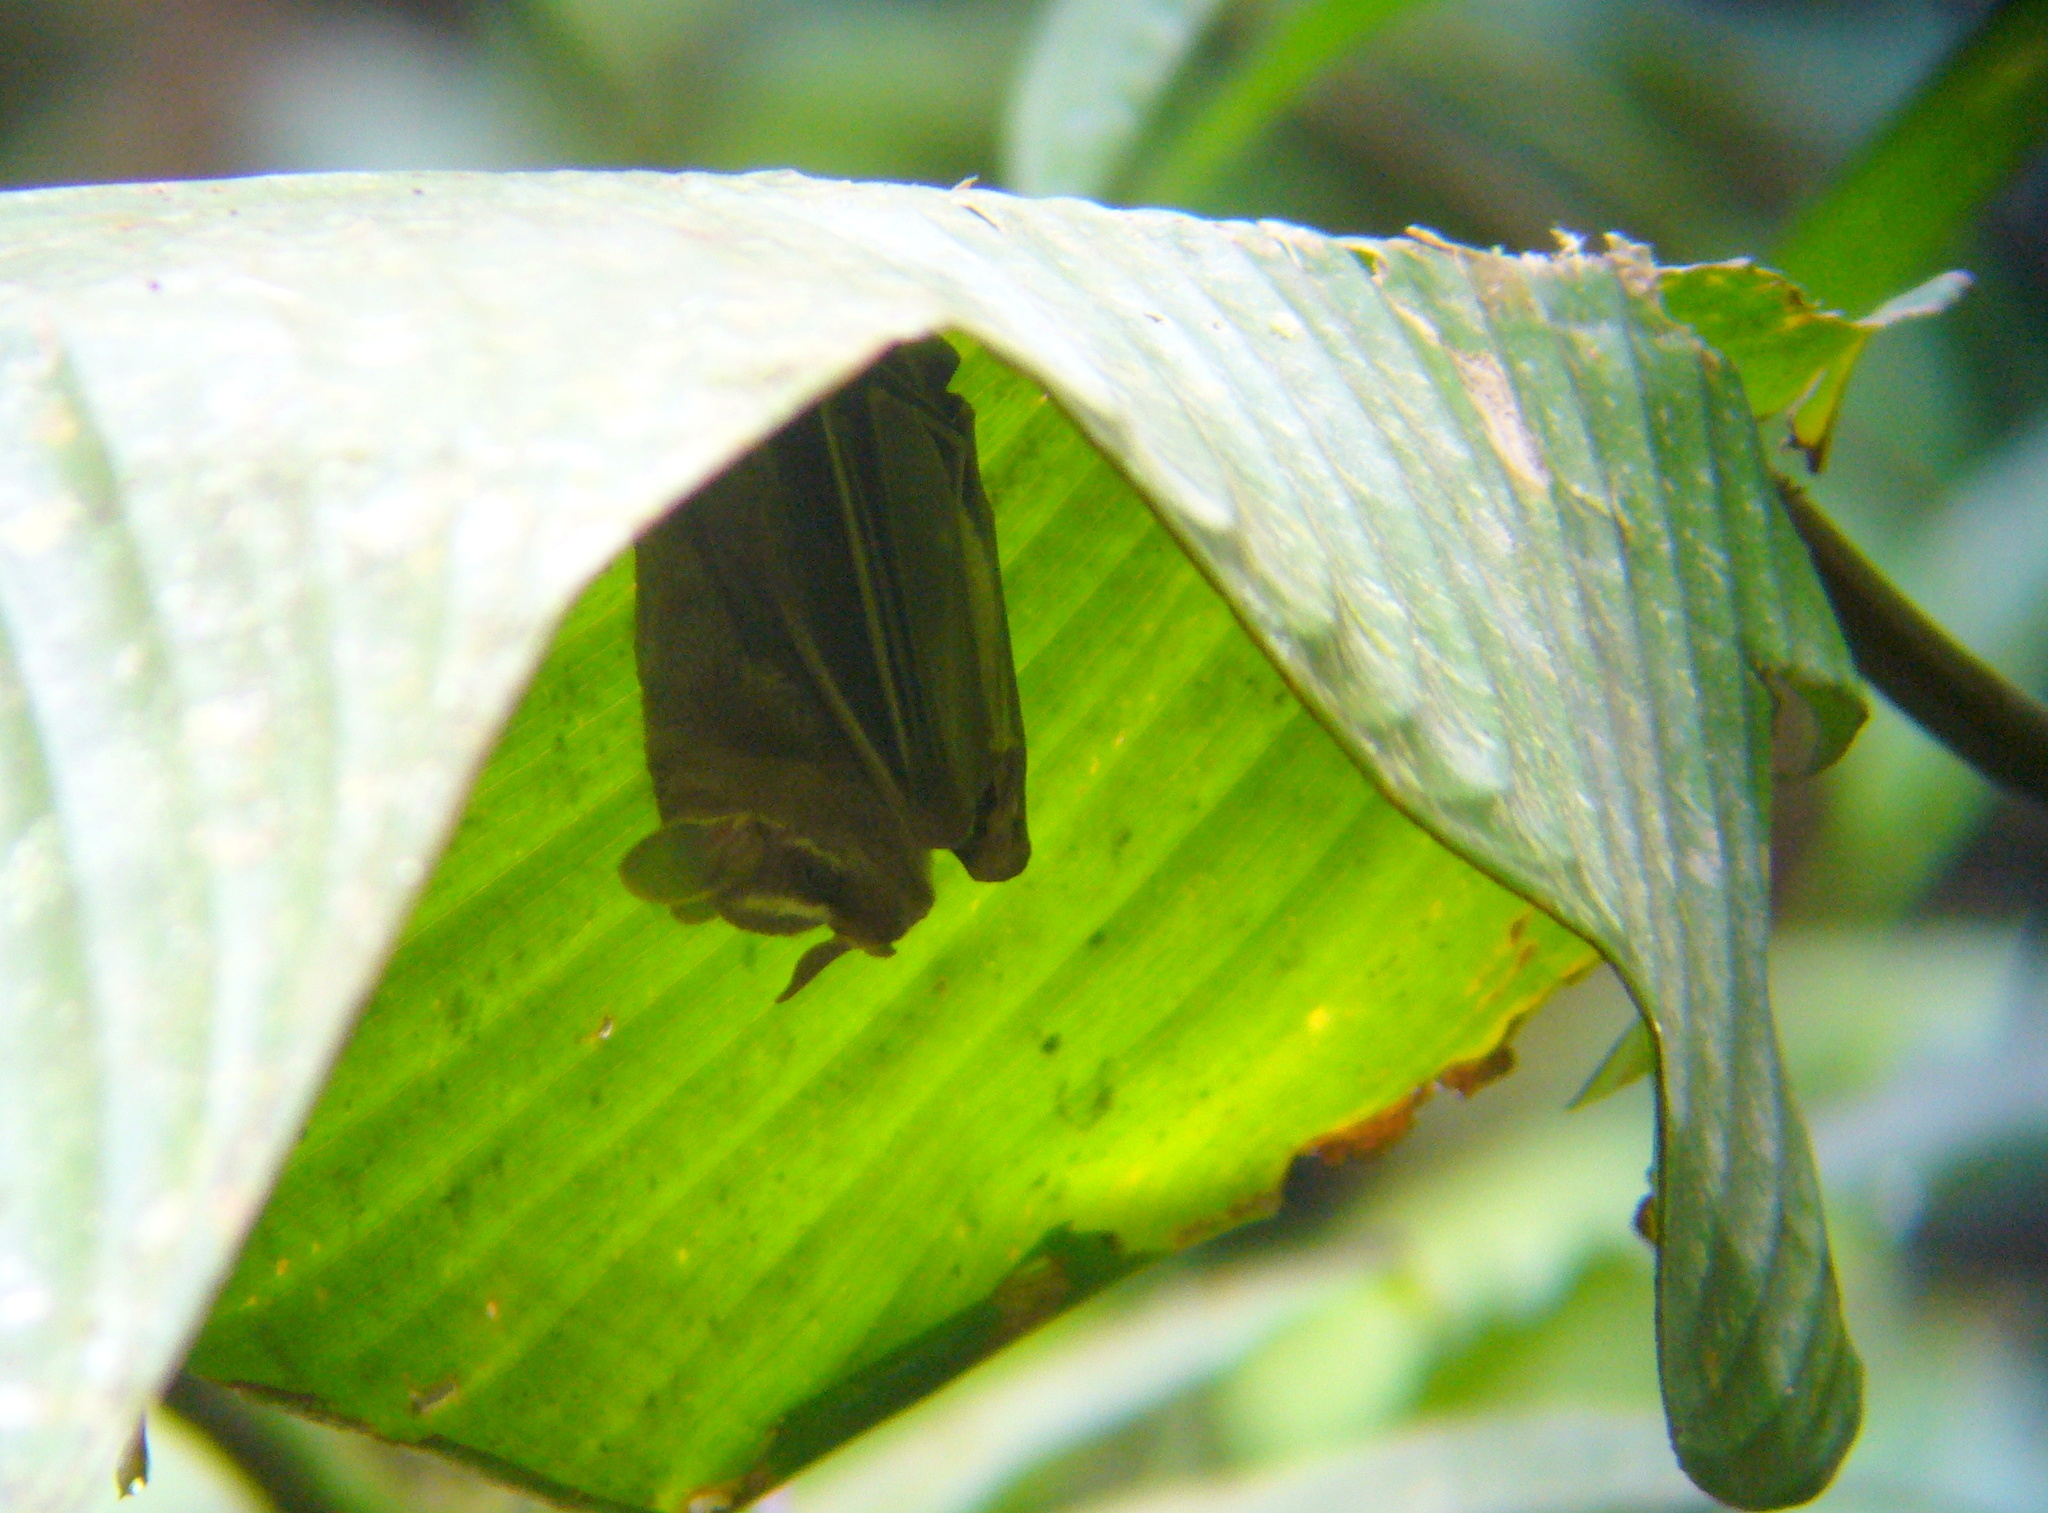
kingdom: Animalia
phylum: Chordata
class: Mammalia
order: Chiroptera
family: Phyllostomidae
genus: Uroderma
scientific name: Uroderma bilobatum
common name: Common tent-making bat
